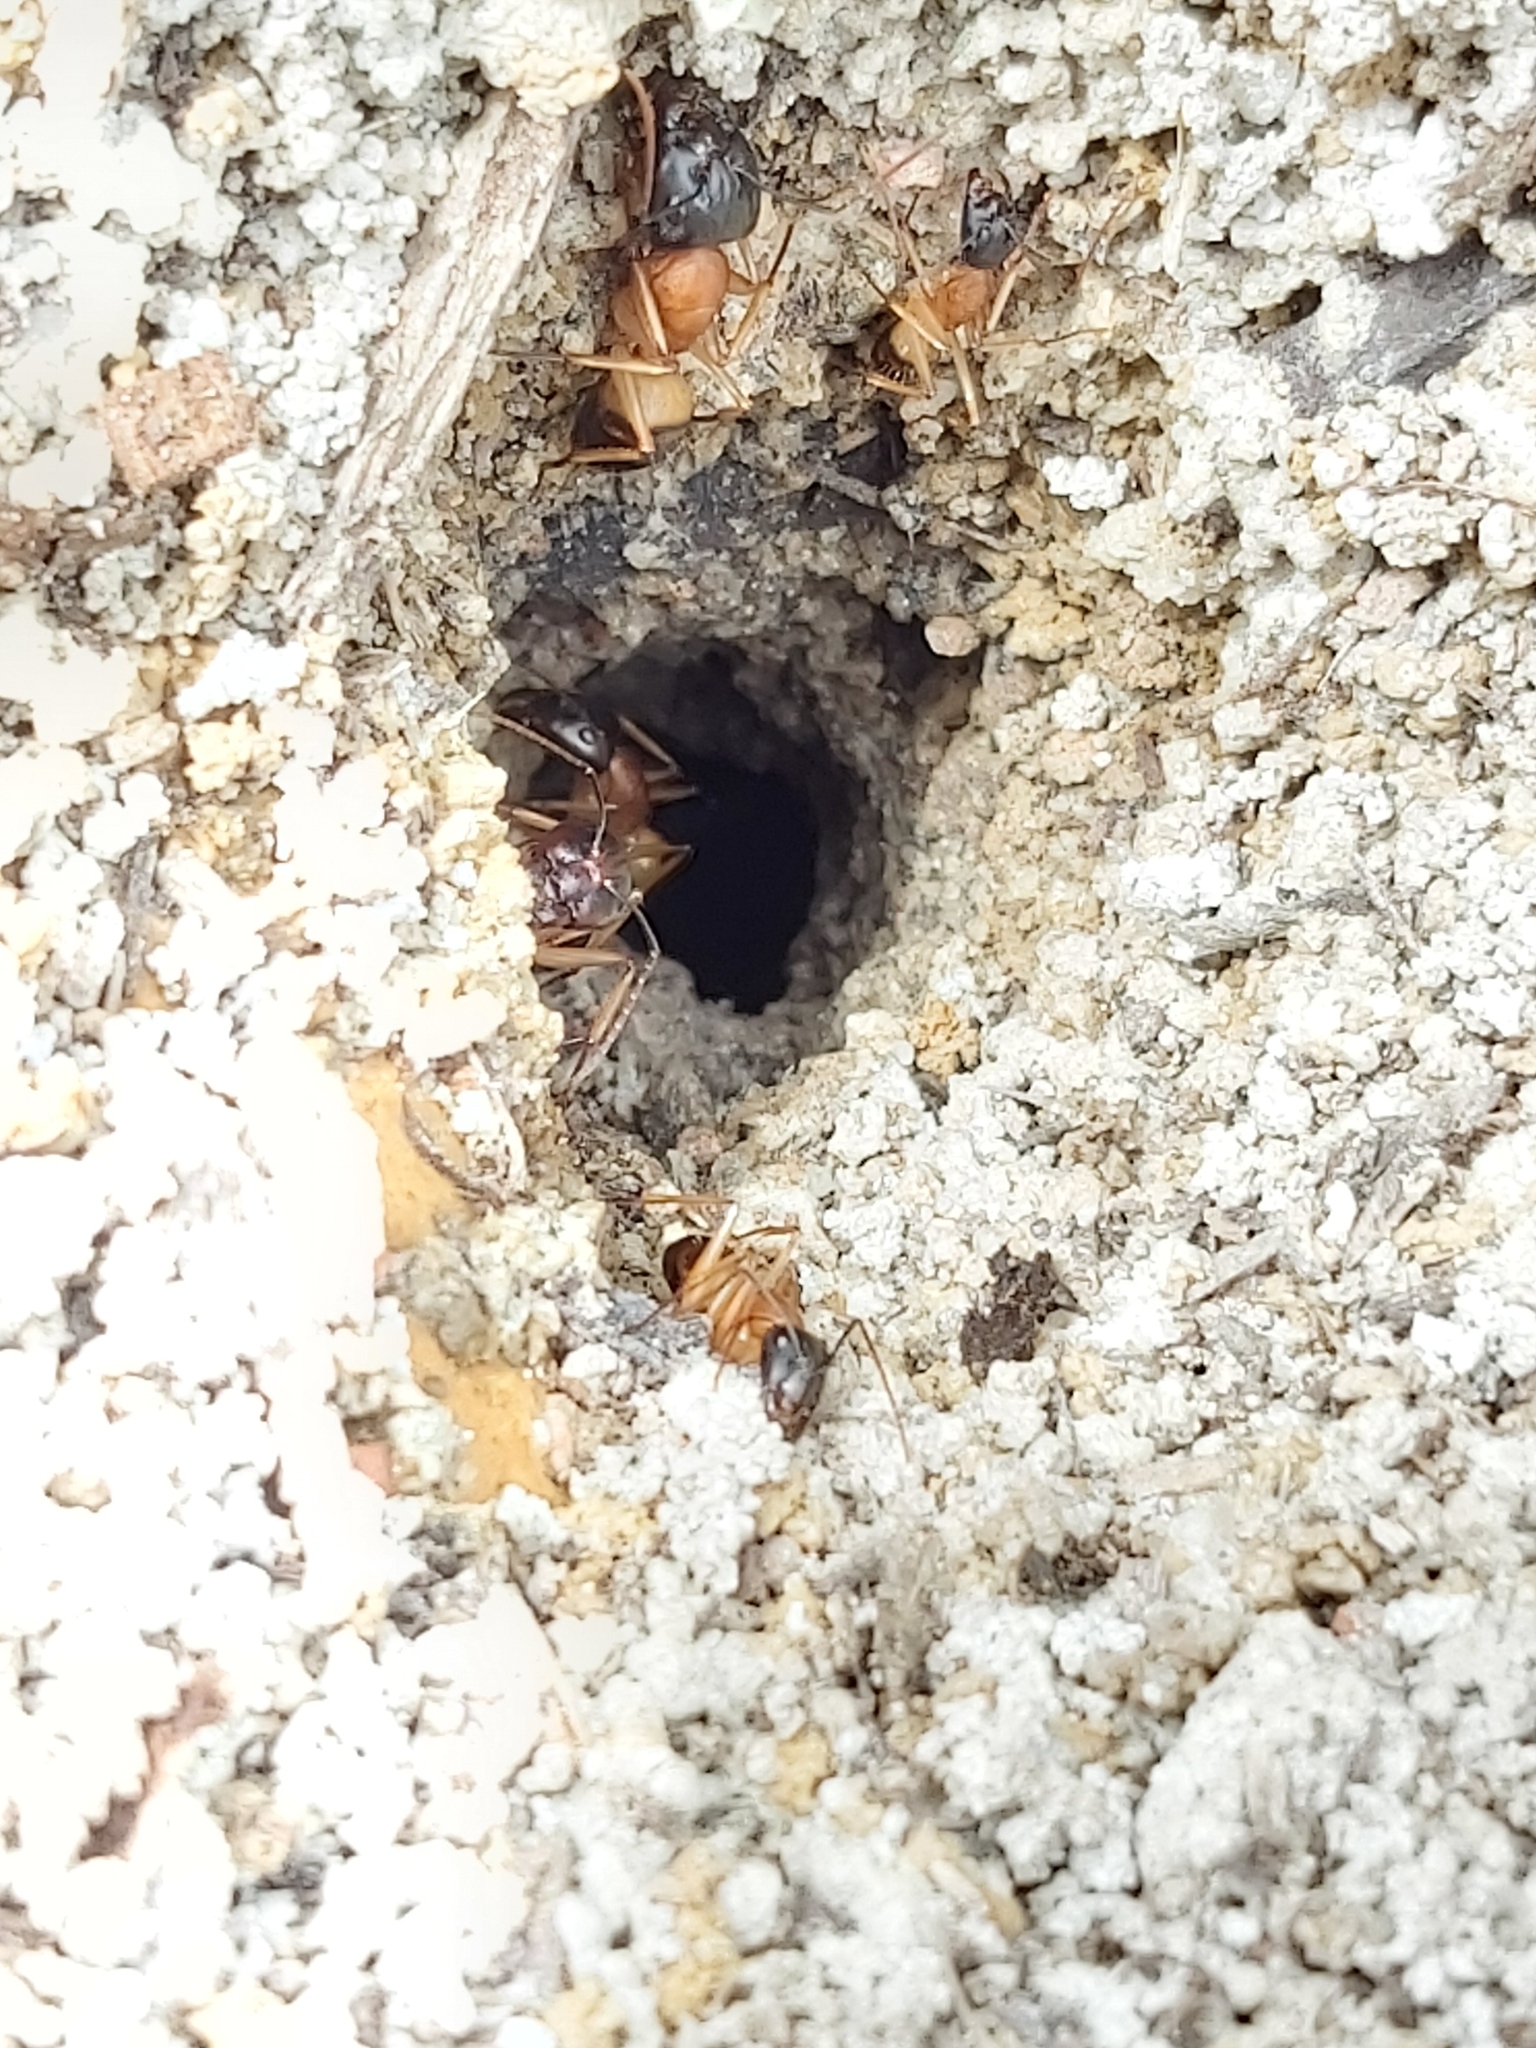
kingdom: Animalia
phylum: Arthropoda
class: Insecta
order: Hymenoptera
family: Formicidae
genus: Camponotus
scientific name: Camponotus consobrinus
